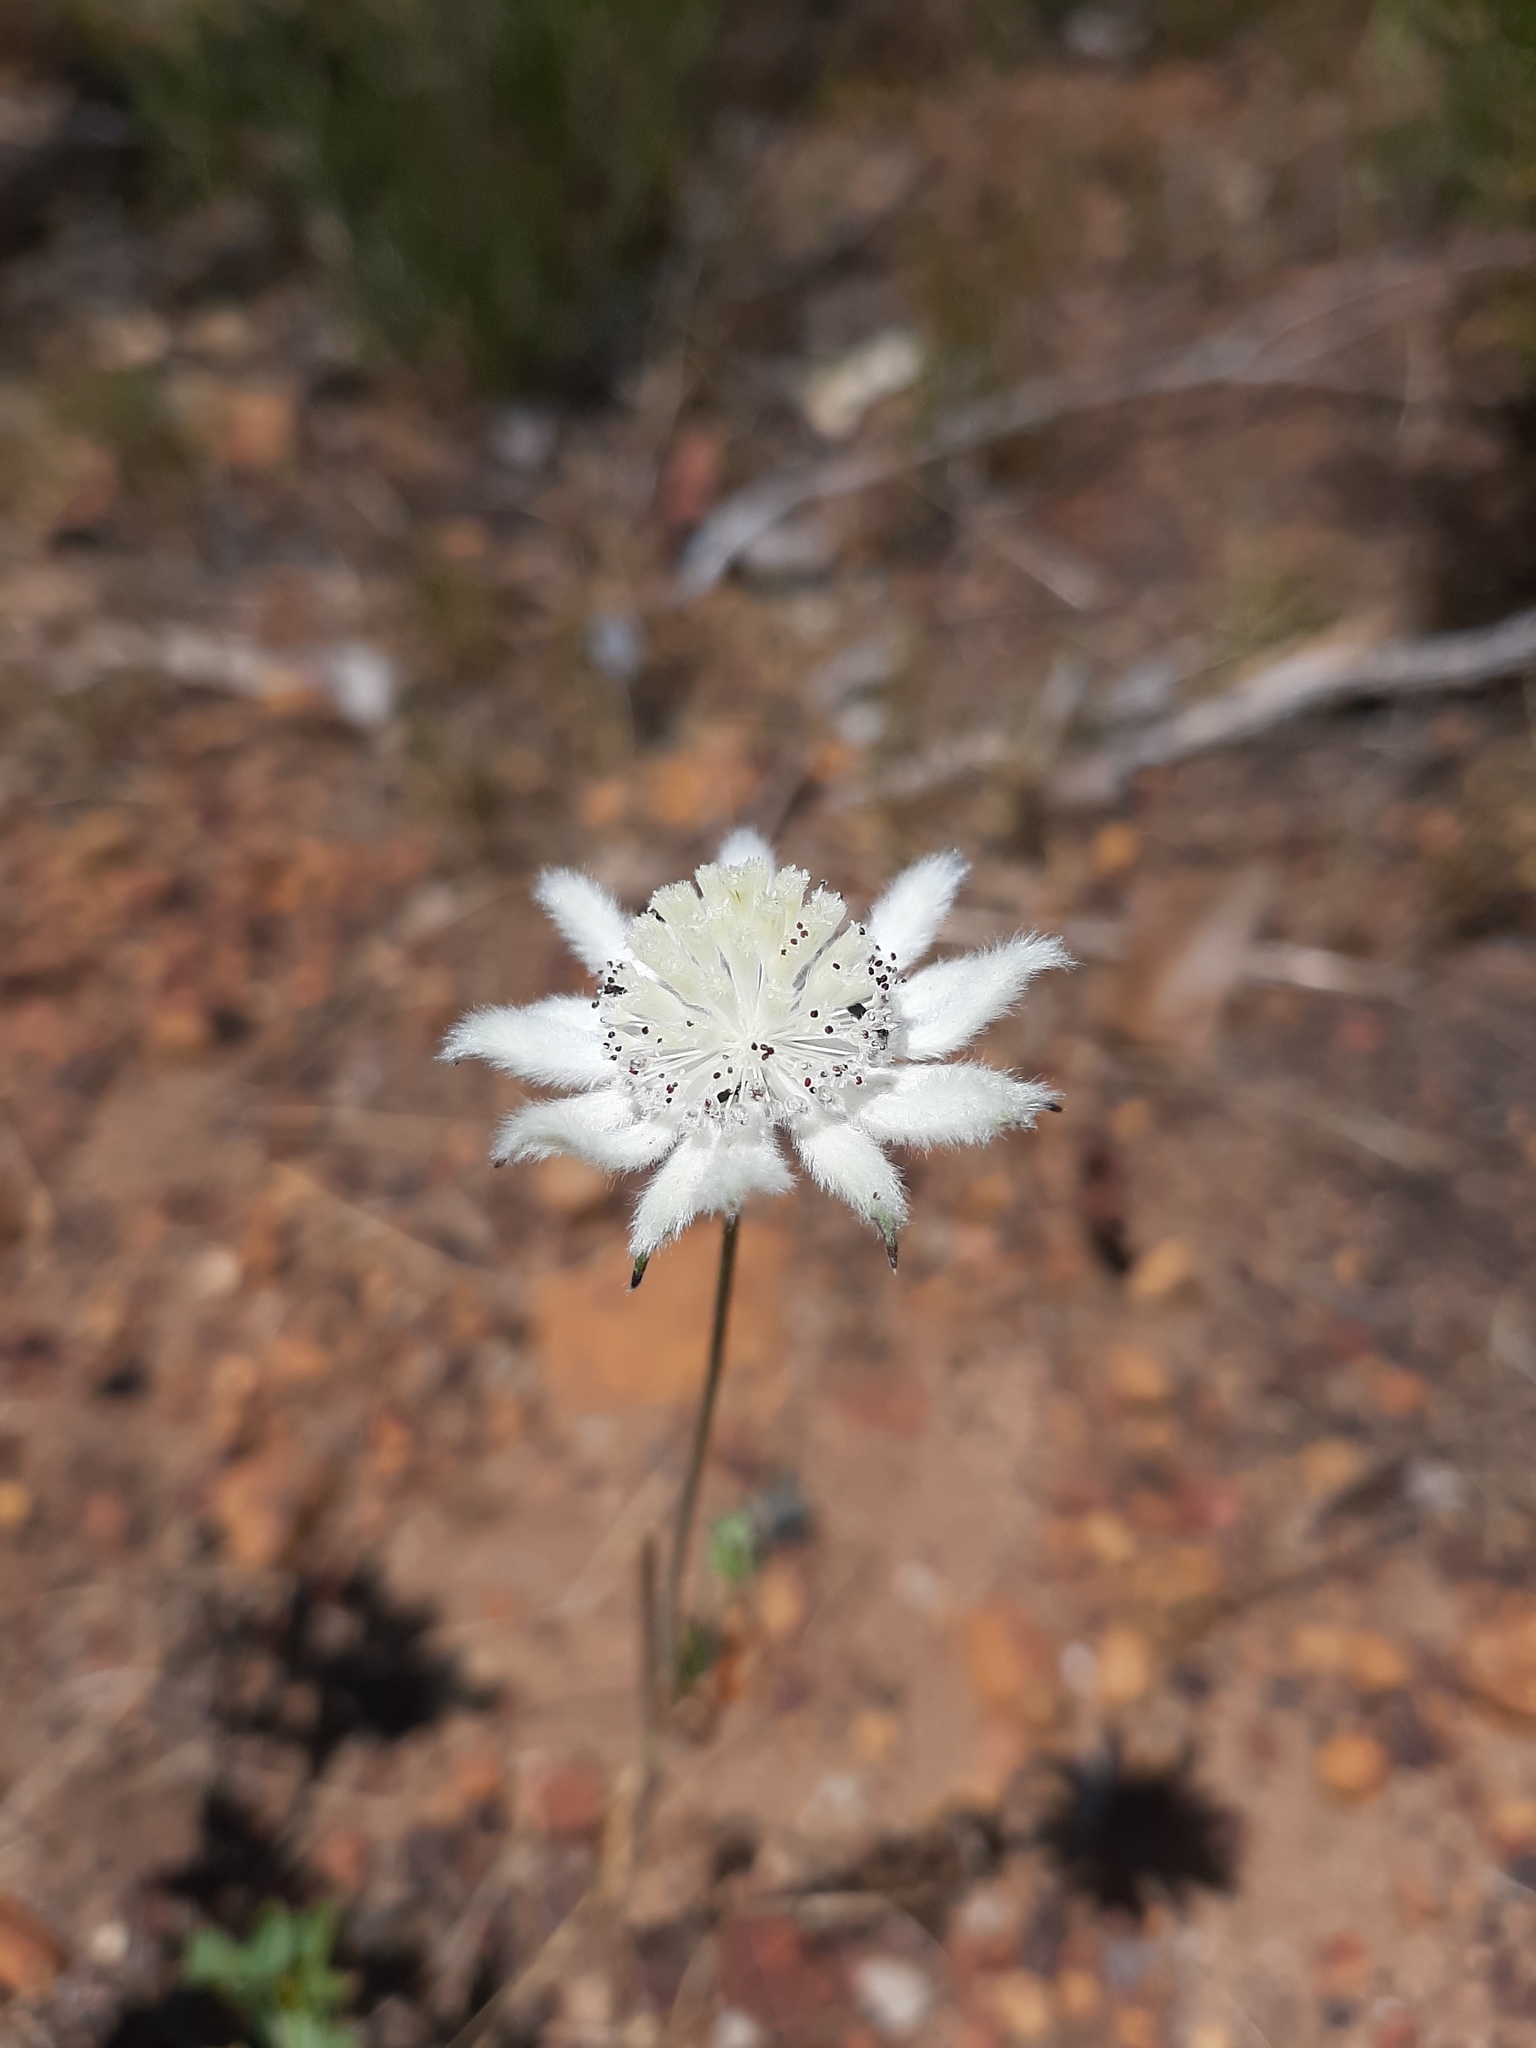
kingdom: Plantae
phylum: Tracheophyta
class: Magnoliopsida
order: Apiales
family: Apiaceae
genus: Actinotus
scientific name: Actinotus leucocephalus
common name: Flannel-flower
